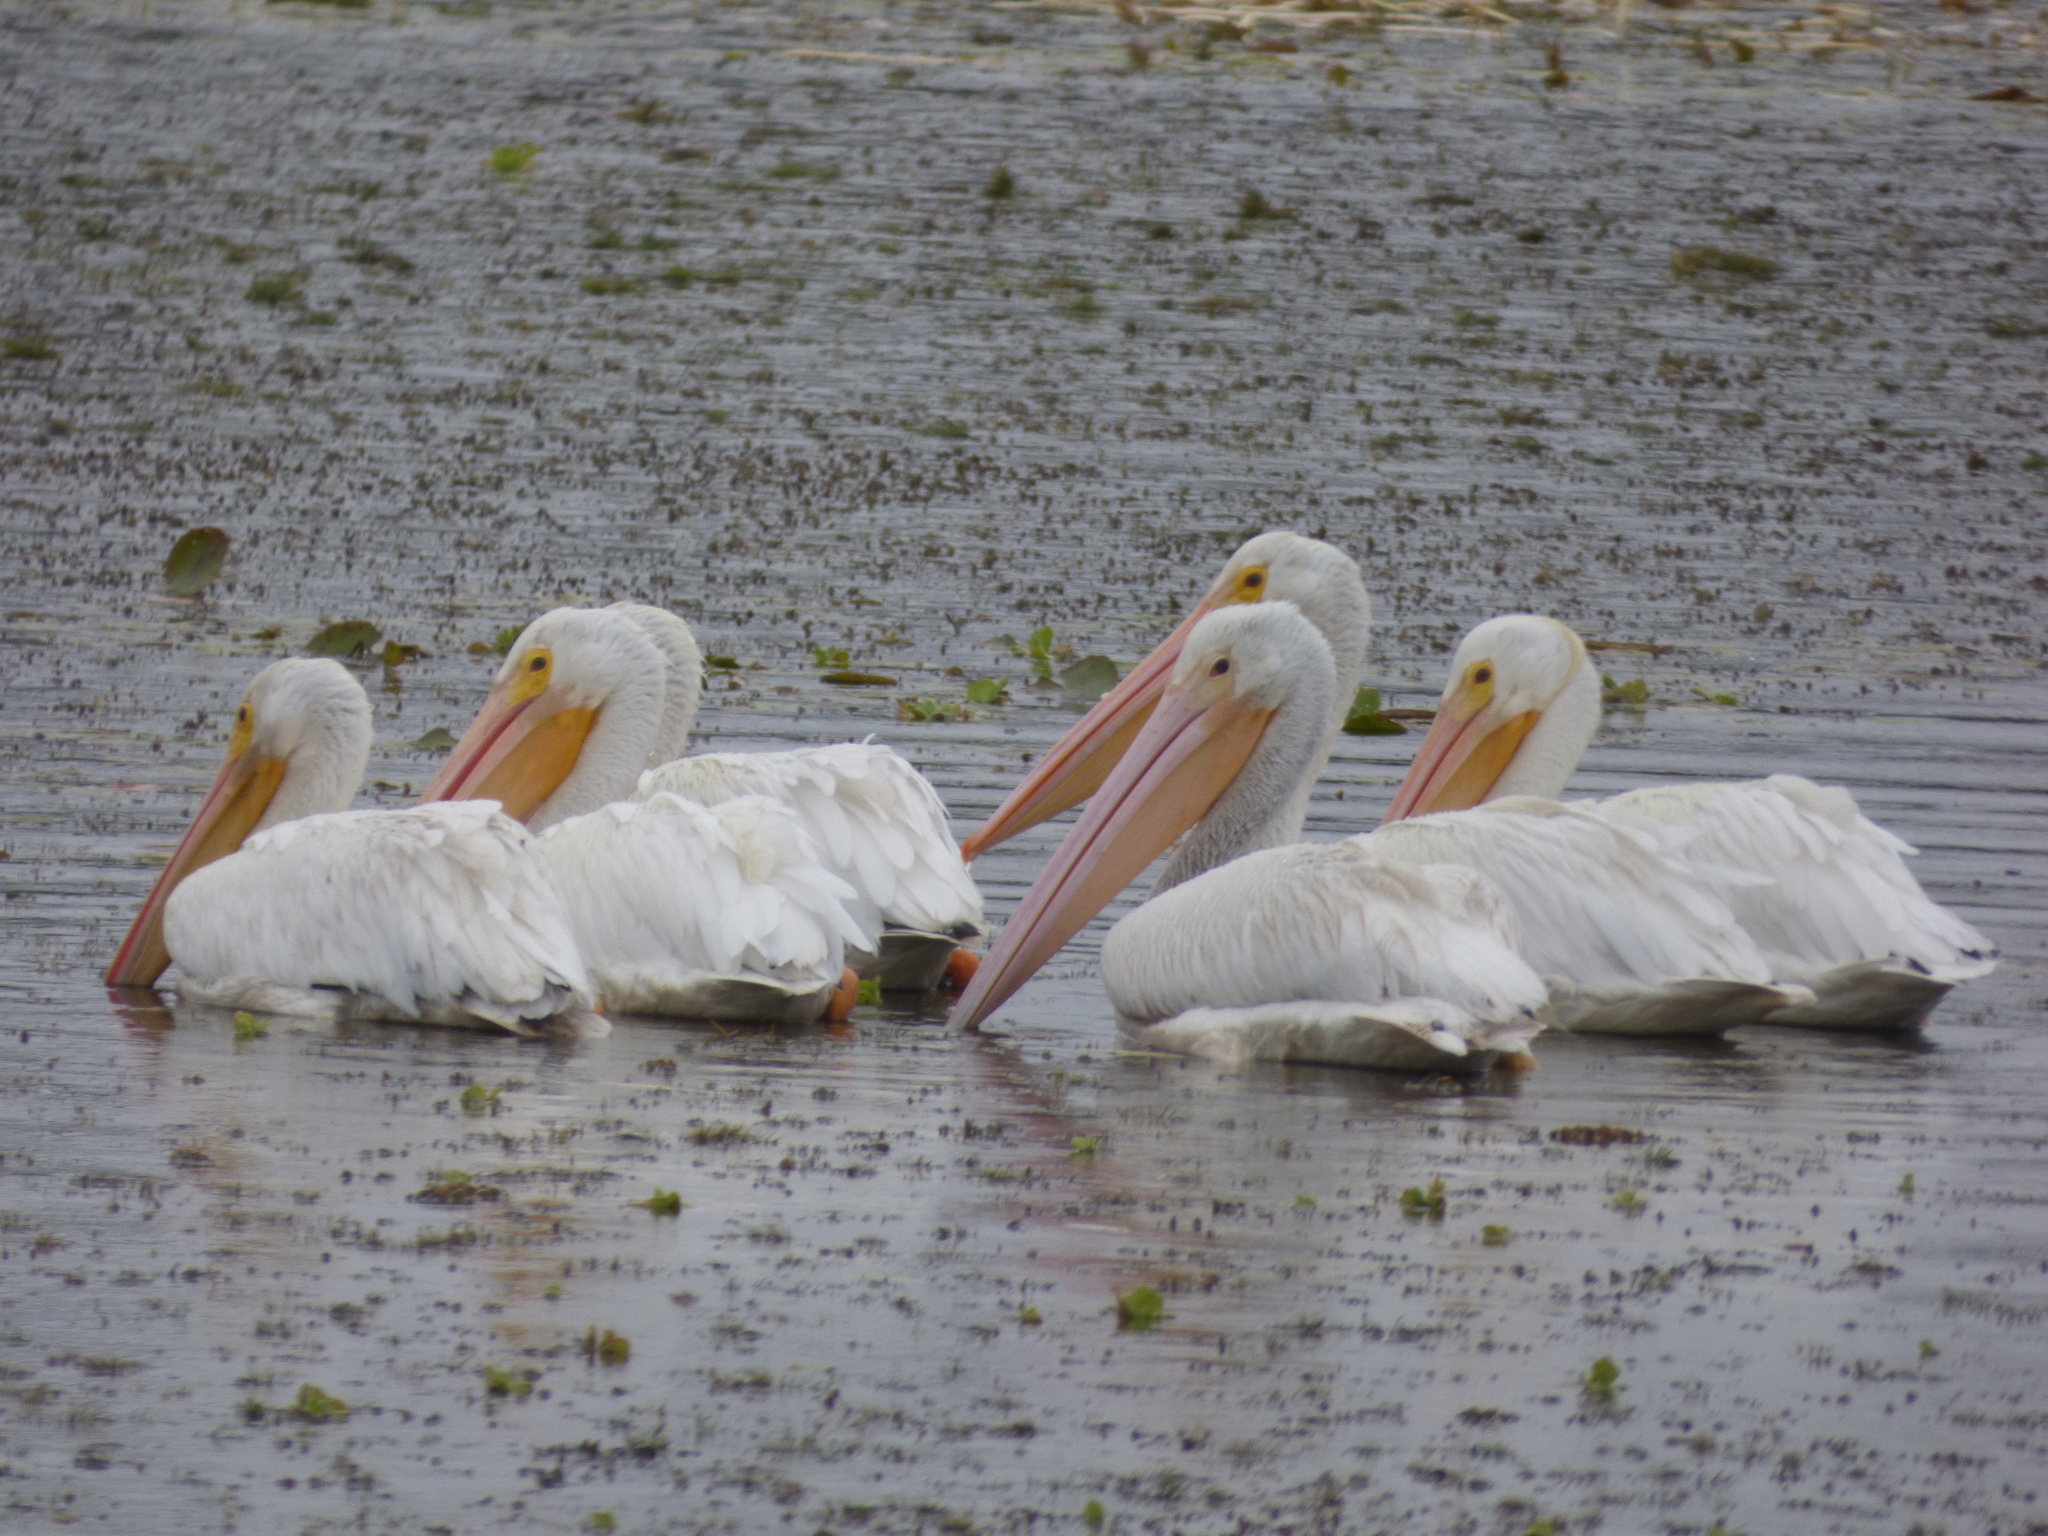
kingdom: Animalia
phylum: Chordata
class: Aves
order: Pelecaniformes
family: Pelecanidae
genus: Pelecanus
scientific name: Pelecanus erythrorhynchos
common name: American white pelican
